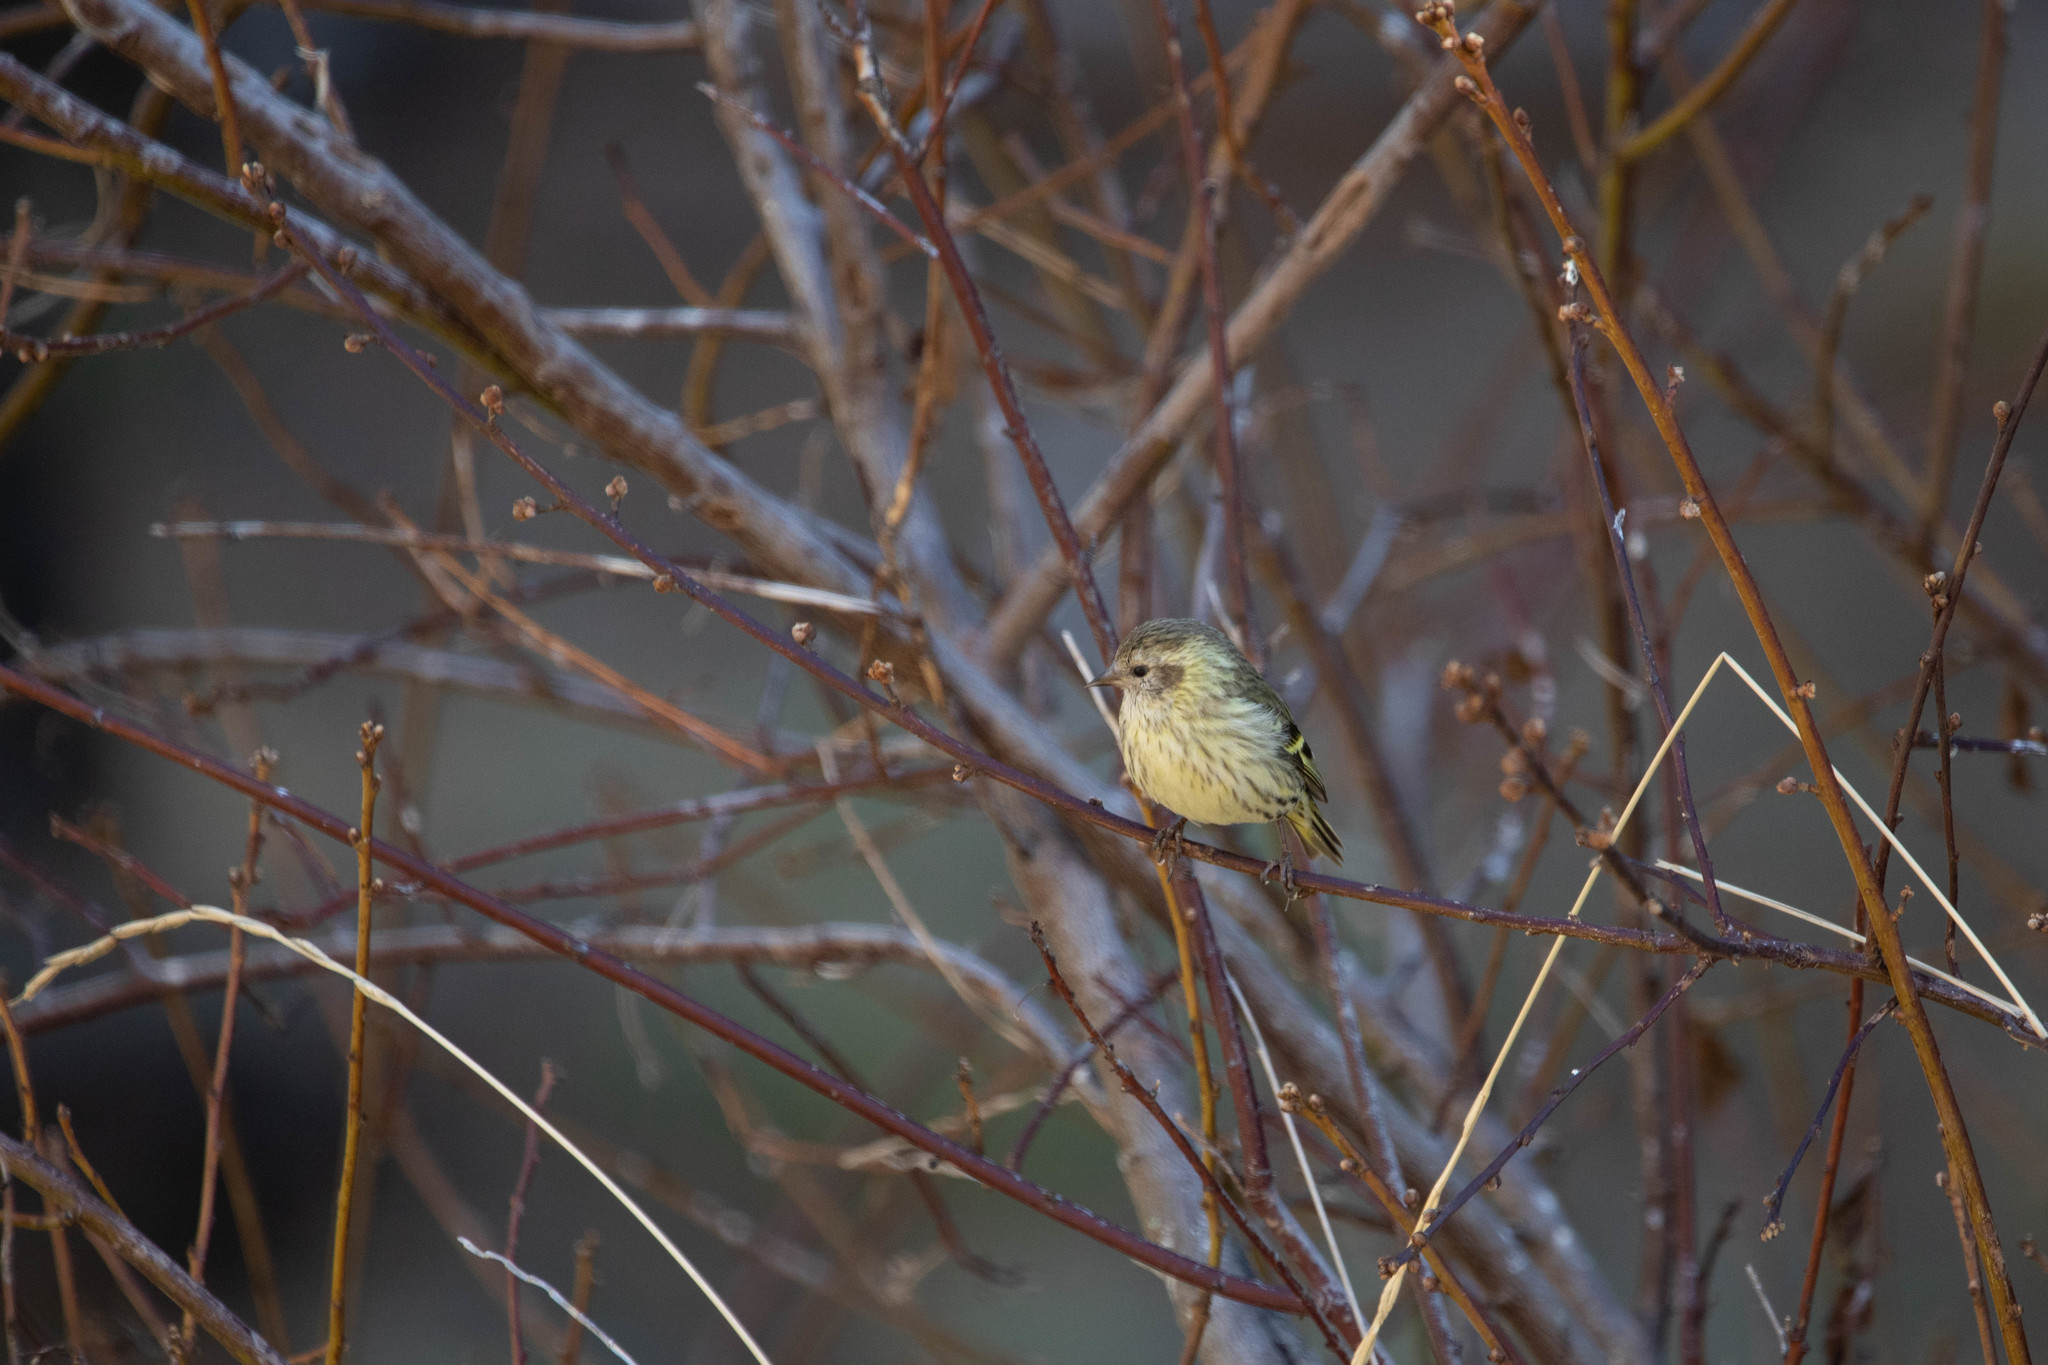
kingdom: Animalia
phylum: Chordata
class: Aves
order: Passeriformes
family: Fringillidae
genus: Spinus
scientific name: Spinus pinus
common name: Pine siskin
